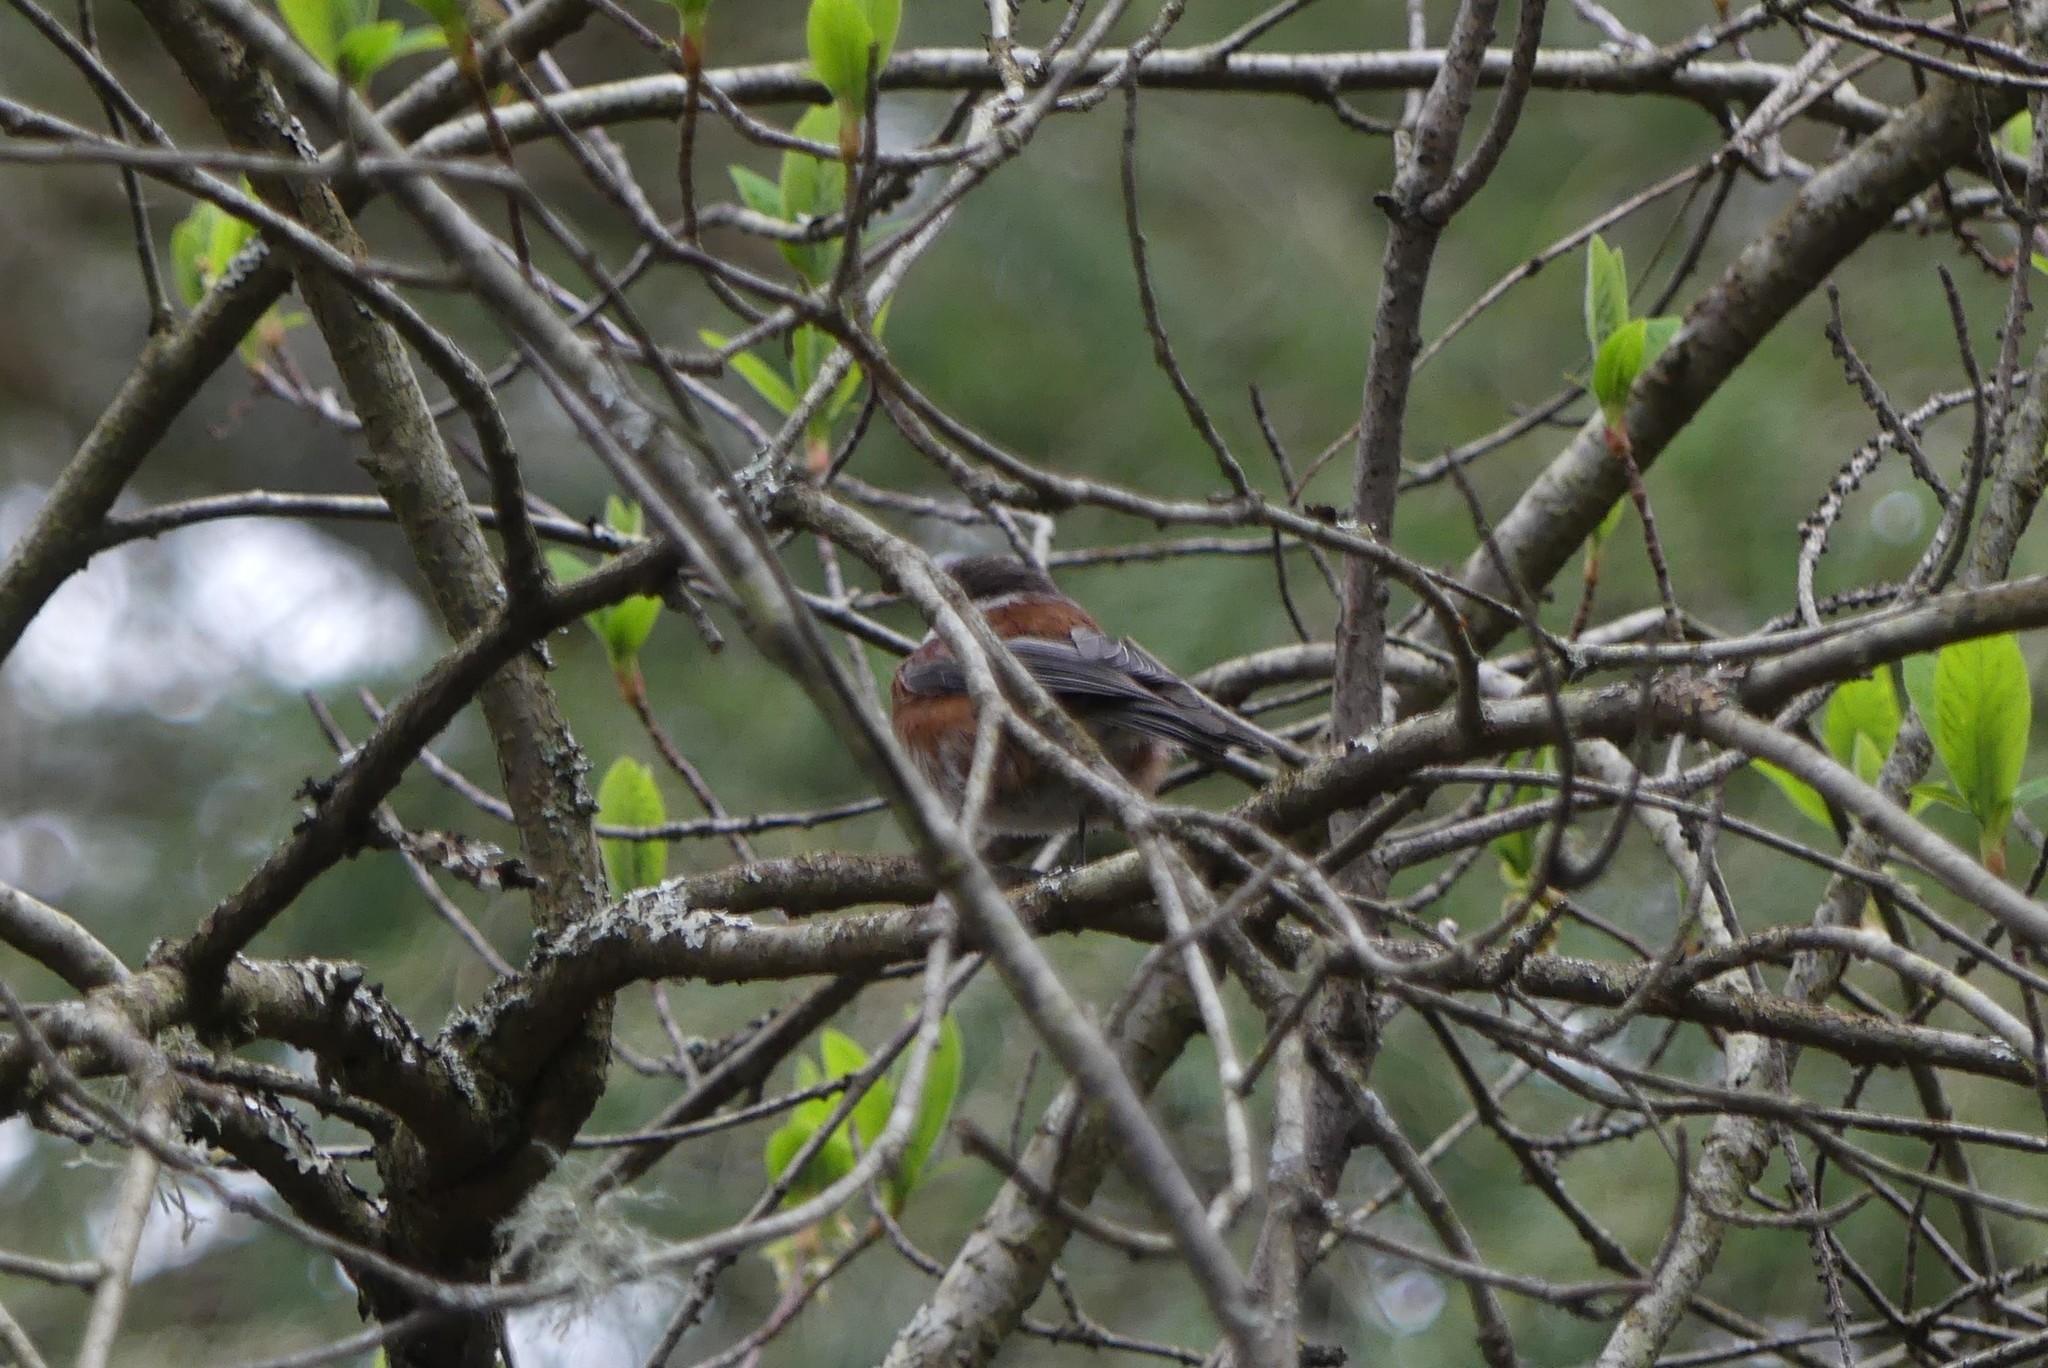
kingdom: Animalia
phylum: Chordata
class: Aves
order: Passeriformes
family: Paridae
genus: Poecile
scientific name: Poecile rufescens
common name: Chestnut-backed chickadee
